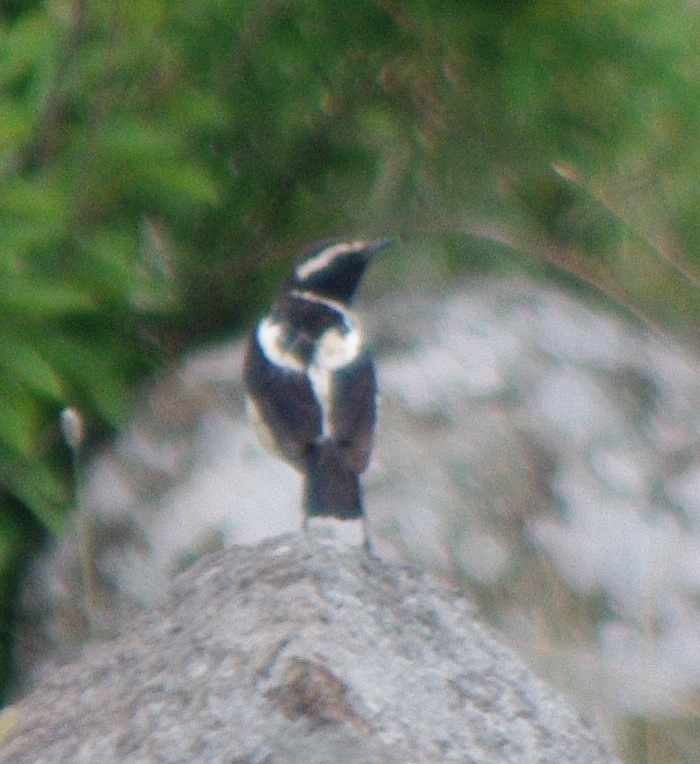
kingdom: Animalia
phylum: Chordata
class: Aves
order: Passeriformes
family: Muscicapidae
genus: Campicoloides
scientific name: Campicoloides bifasciatus
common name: Buff-streaked chat
